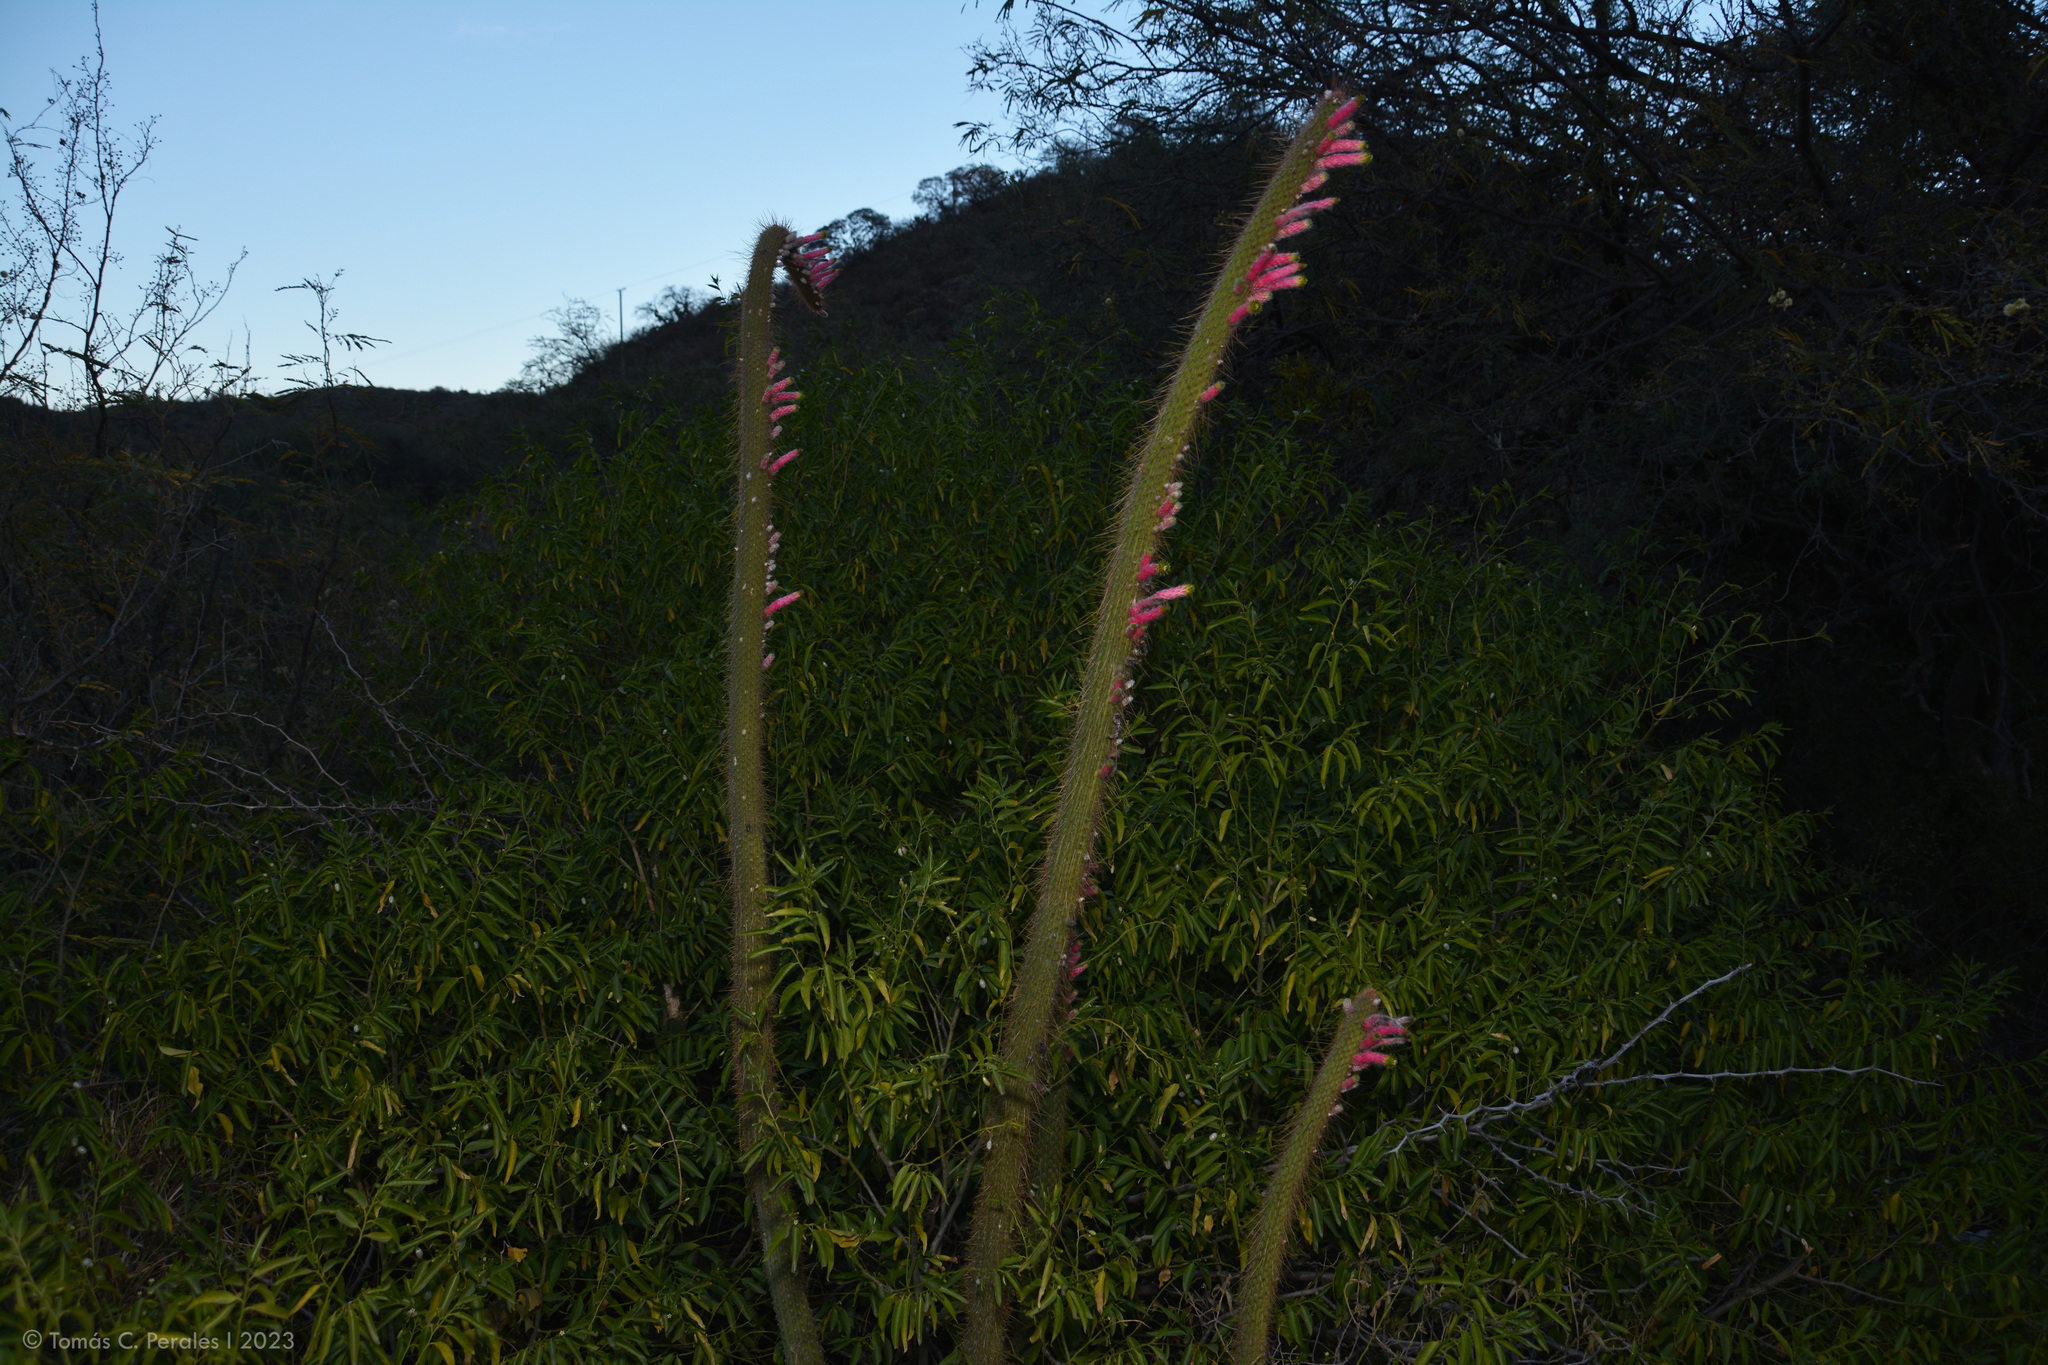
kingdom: Plantae
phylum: Tracheophyta
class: Magnoliopsida
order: Gentianales
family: Apocynaceae
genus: Vallesia
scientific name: Vallesia glabra
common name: Pearlberry
